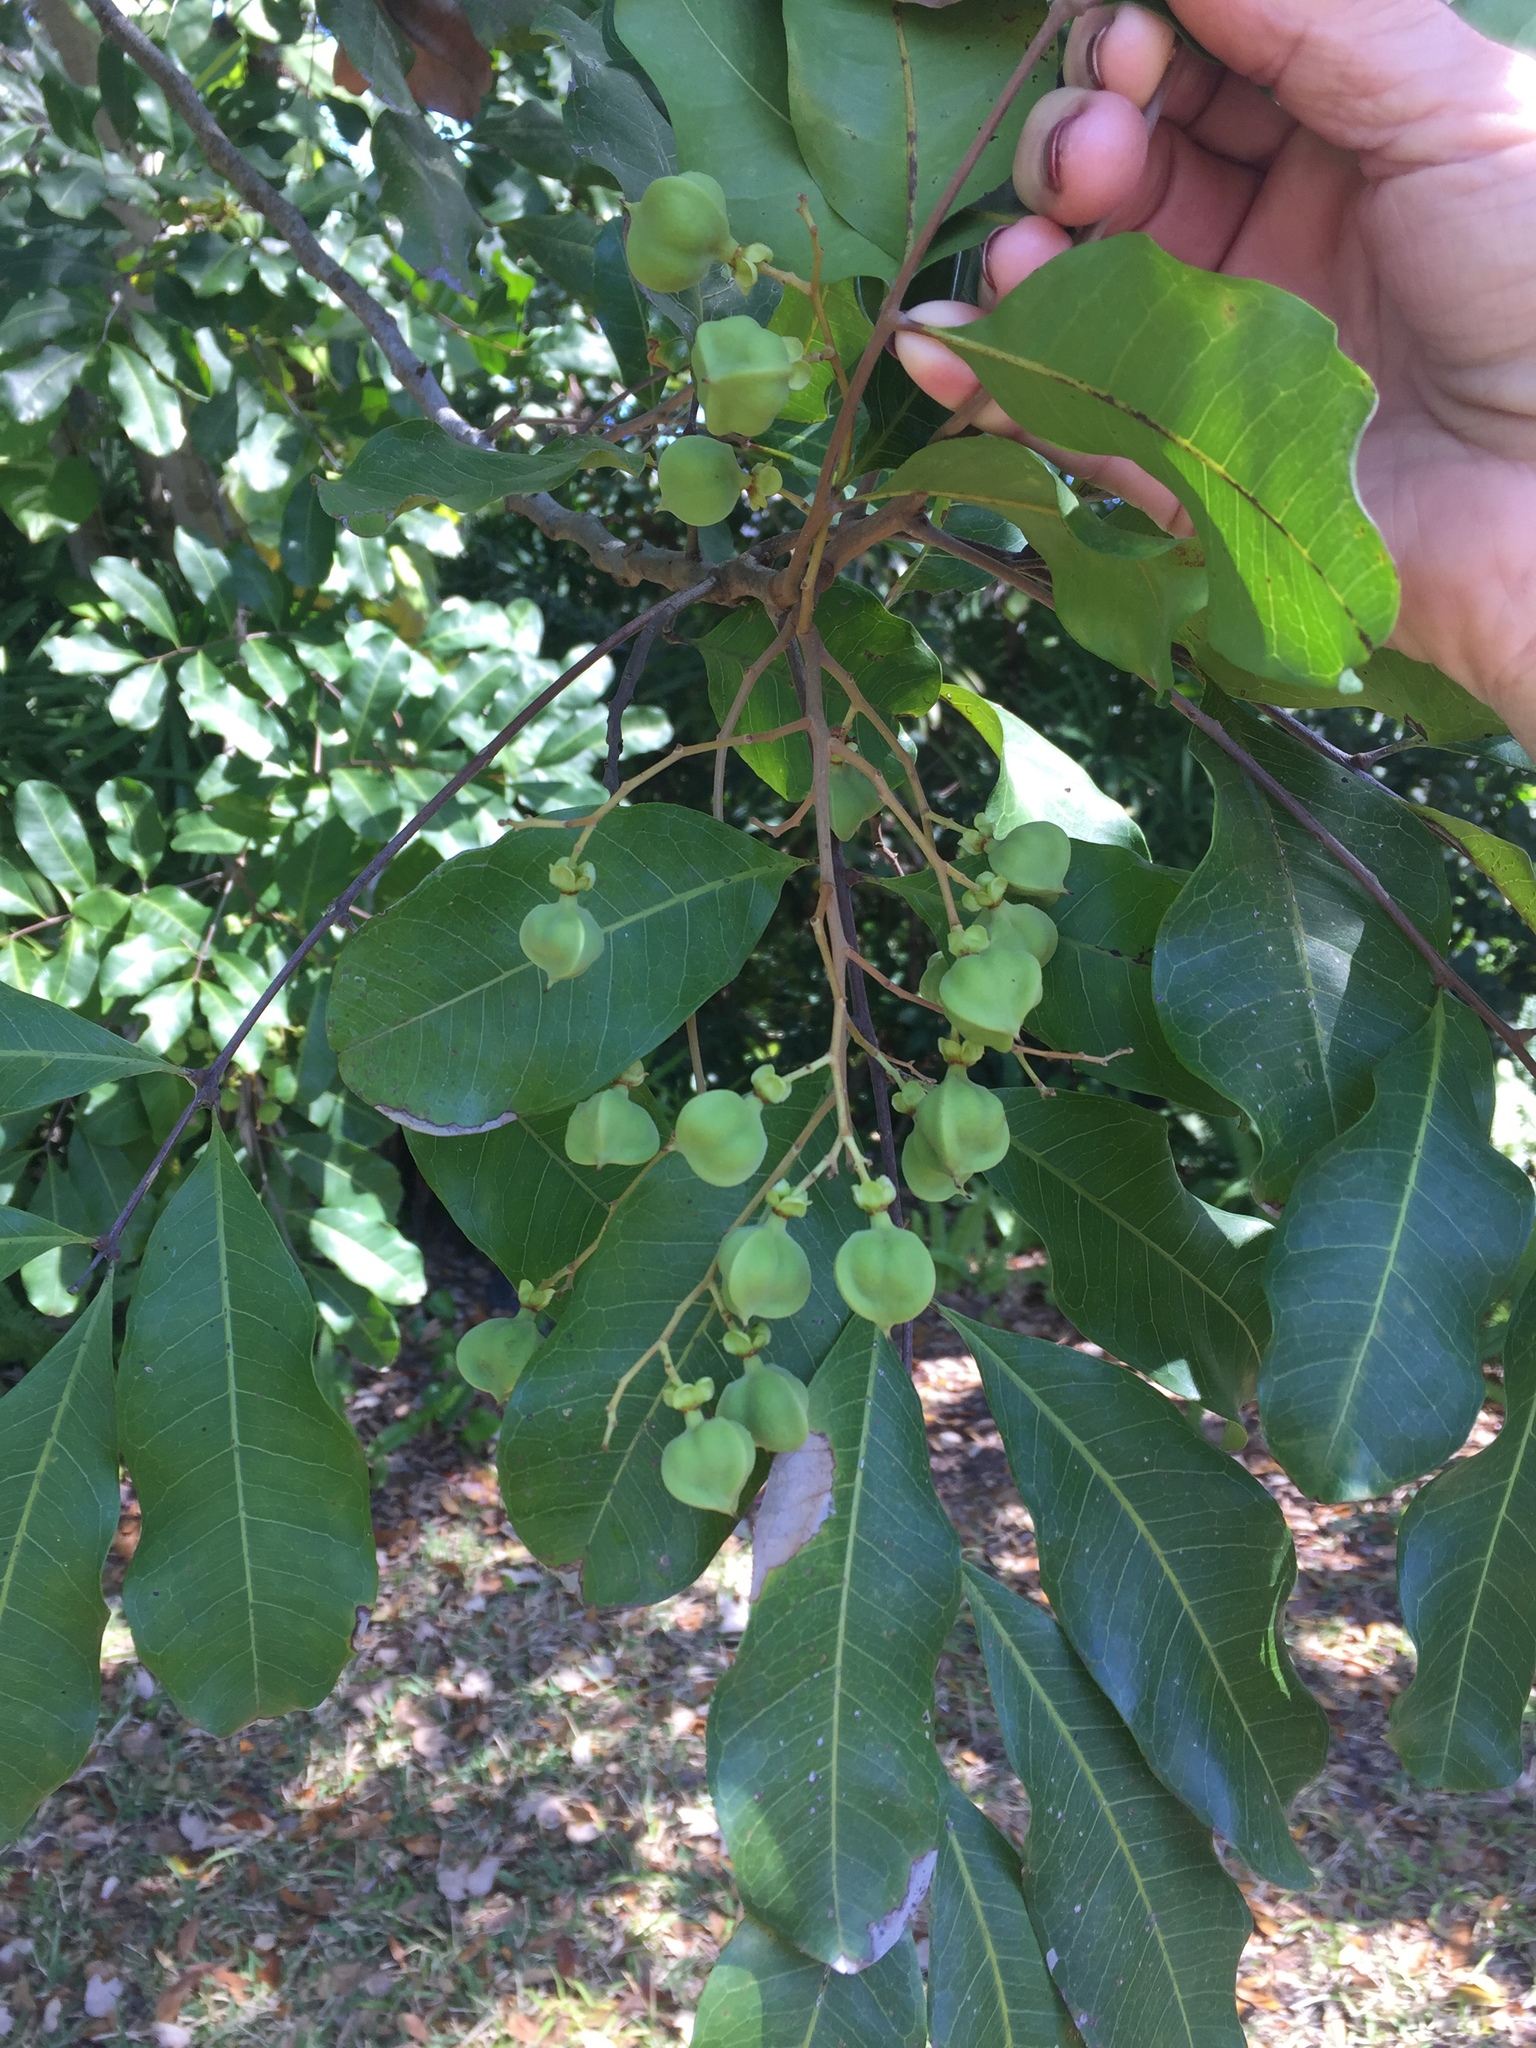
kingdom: Plantae
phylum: Tracheophyta
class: Magnoliopsida
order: Sapindales
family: Sapindaceae
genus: Cupaniopsis
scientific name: Cupaniopsis anacardioides
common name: Carrotwood
